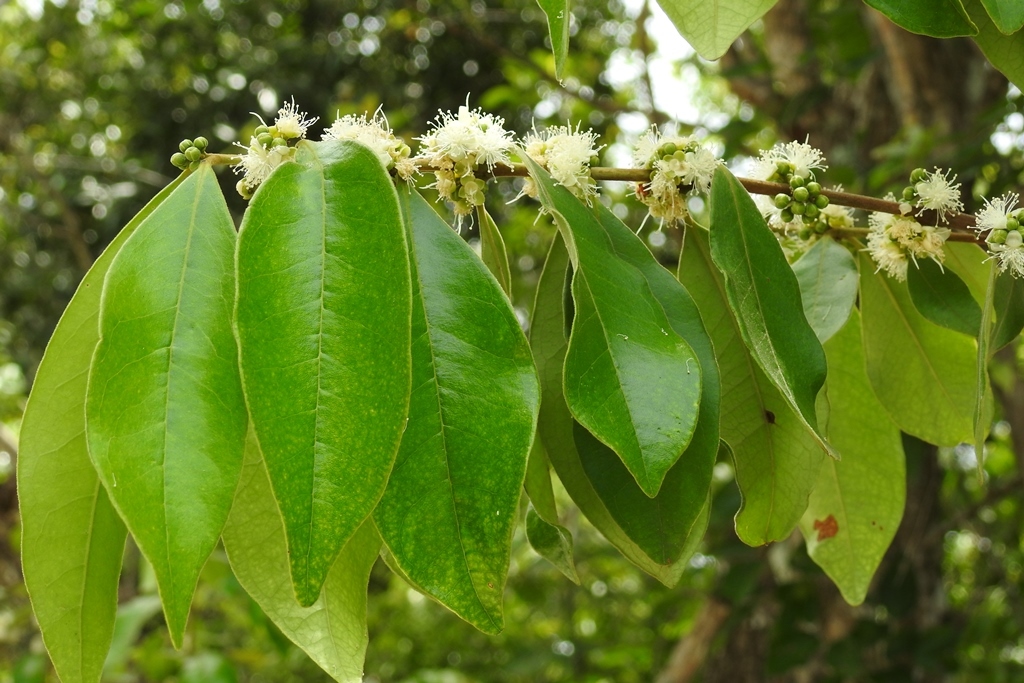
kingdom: Plantae
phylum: Tracheophyta
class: Magnoliopsida
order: Myrtales
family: Myrtaceae
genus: Eugenia
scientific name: Eugenia capuli
